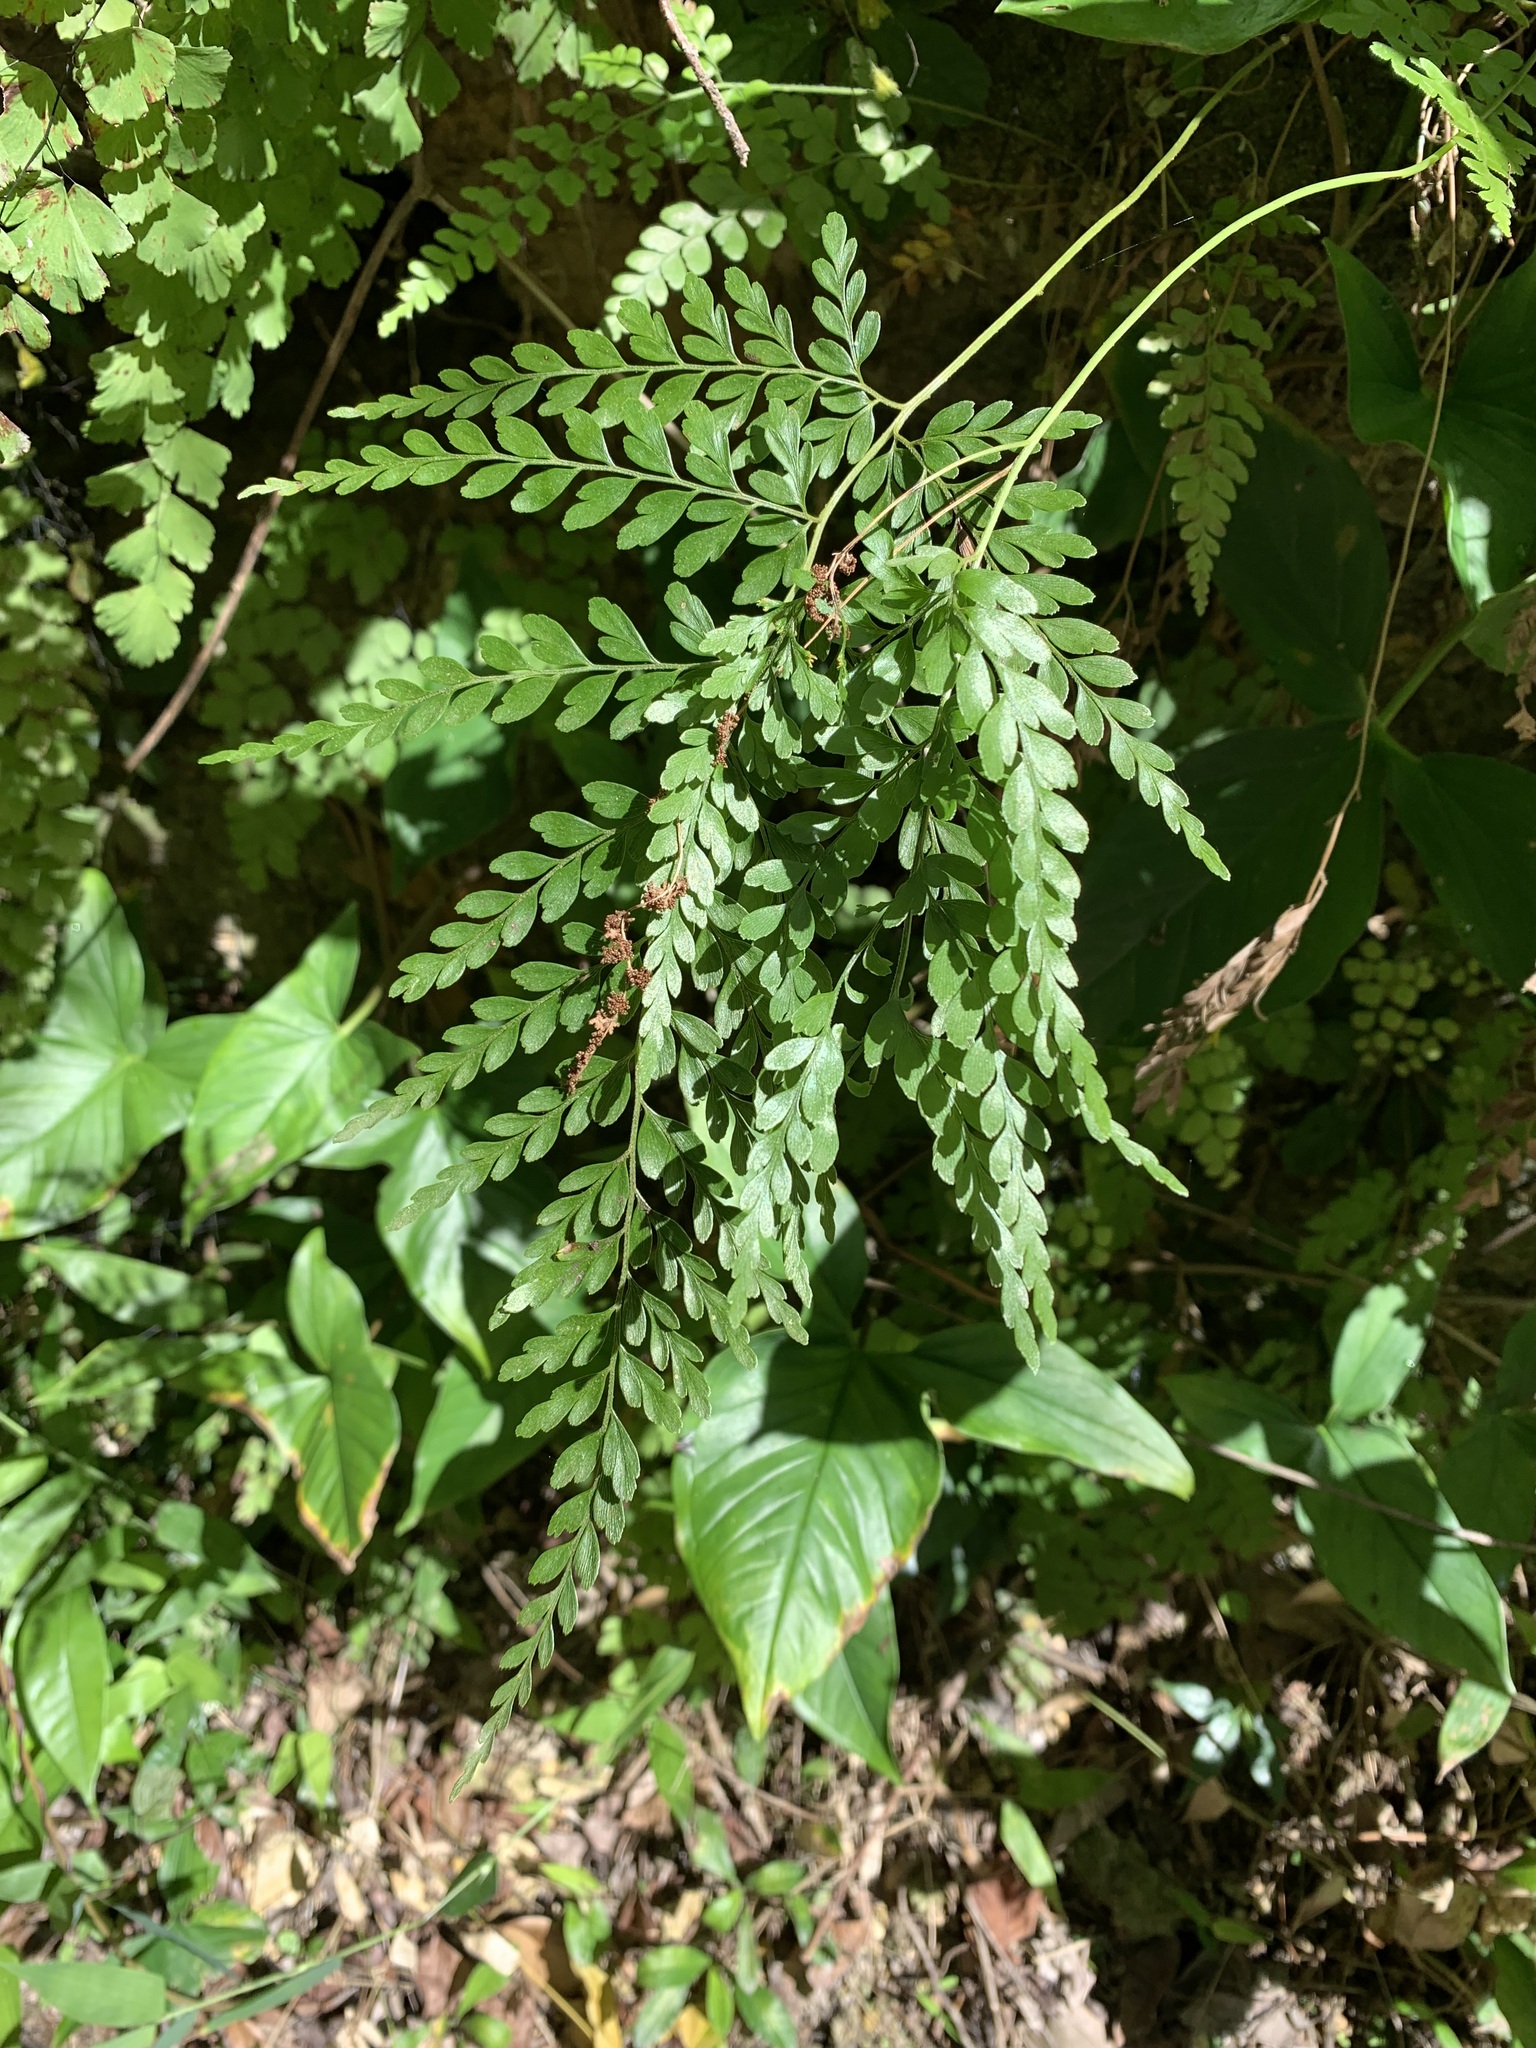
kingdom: Plantae
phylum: Tracheophyta
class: Polypodiopsida
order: Schizaeales
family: Anemiaceae
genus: Anemia
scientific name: Anemia adiantifolia
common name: Pine fern
